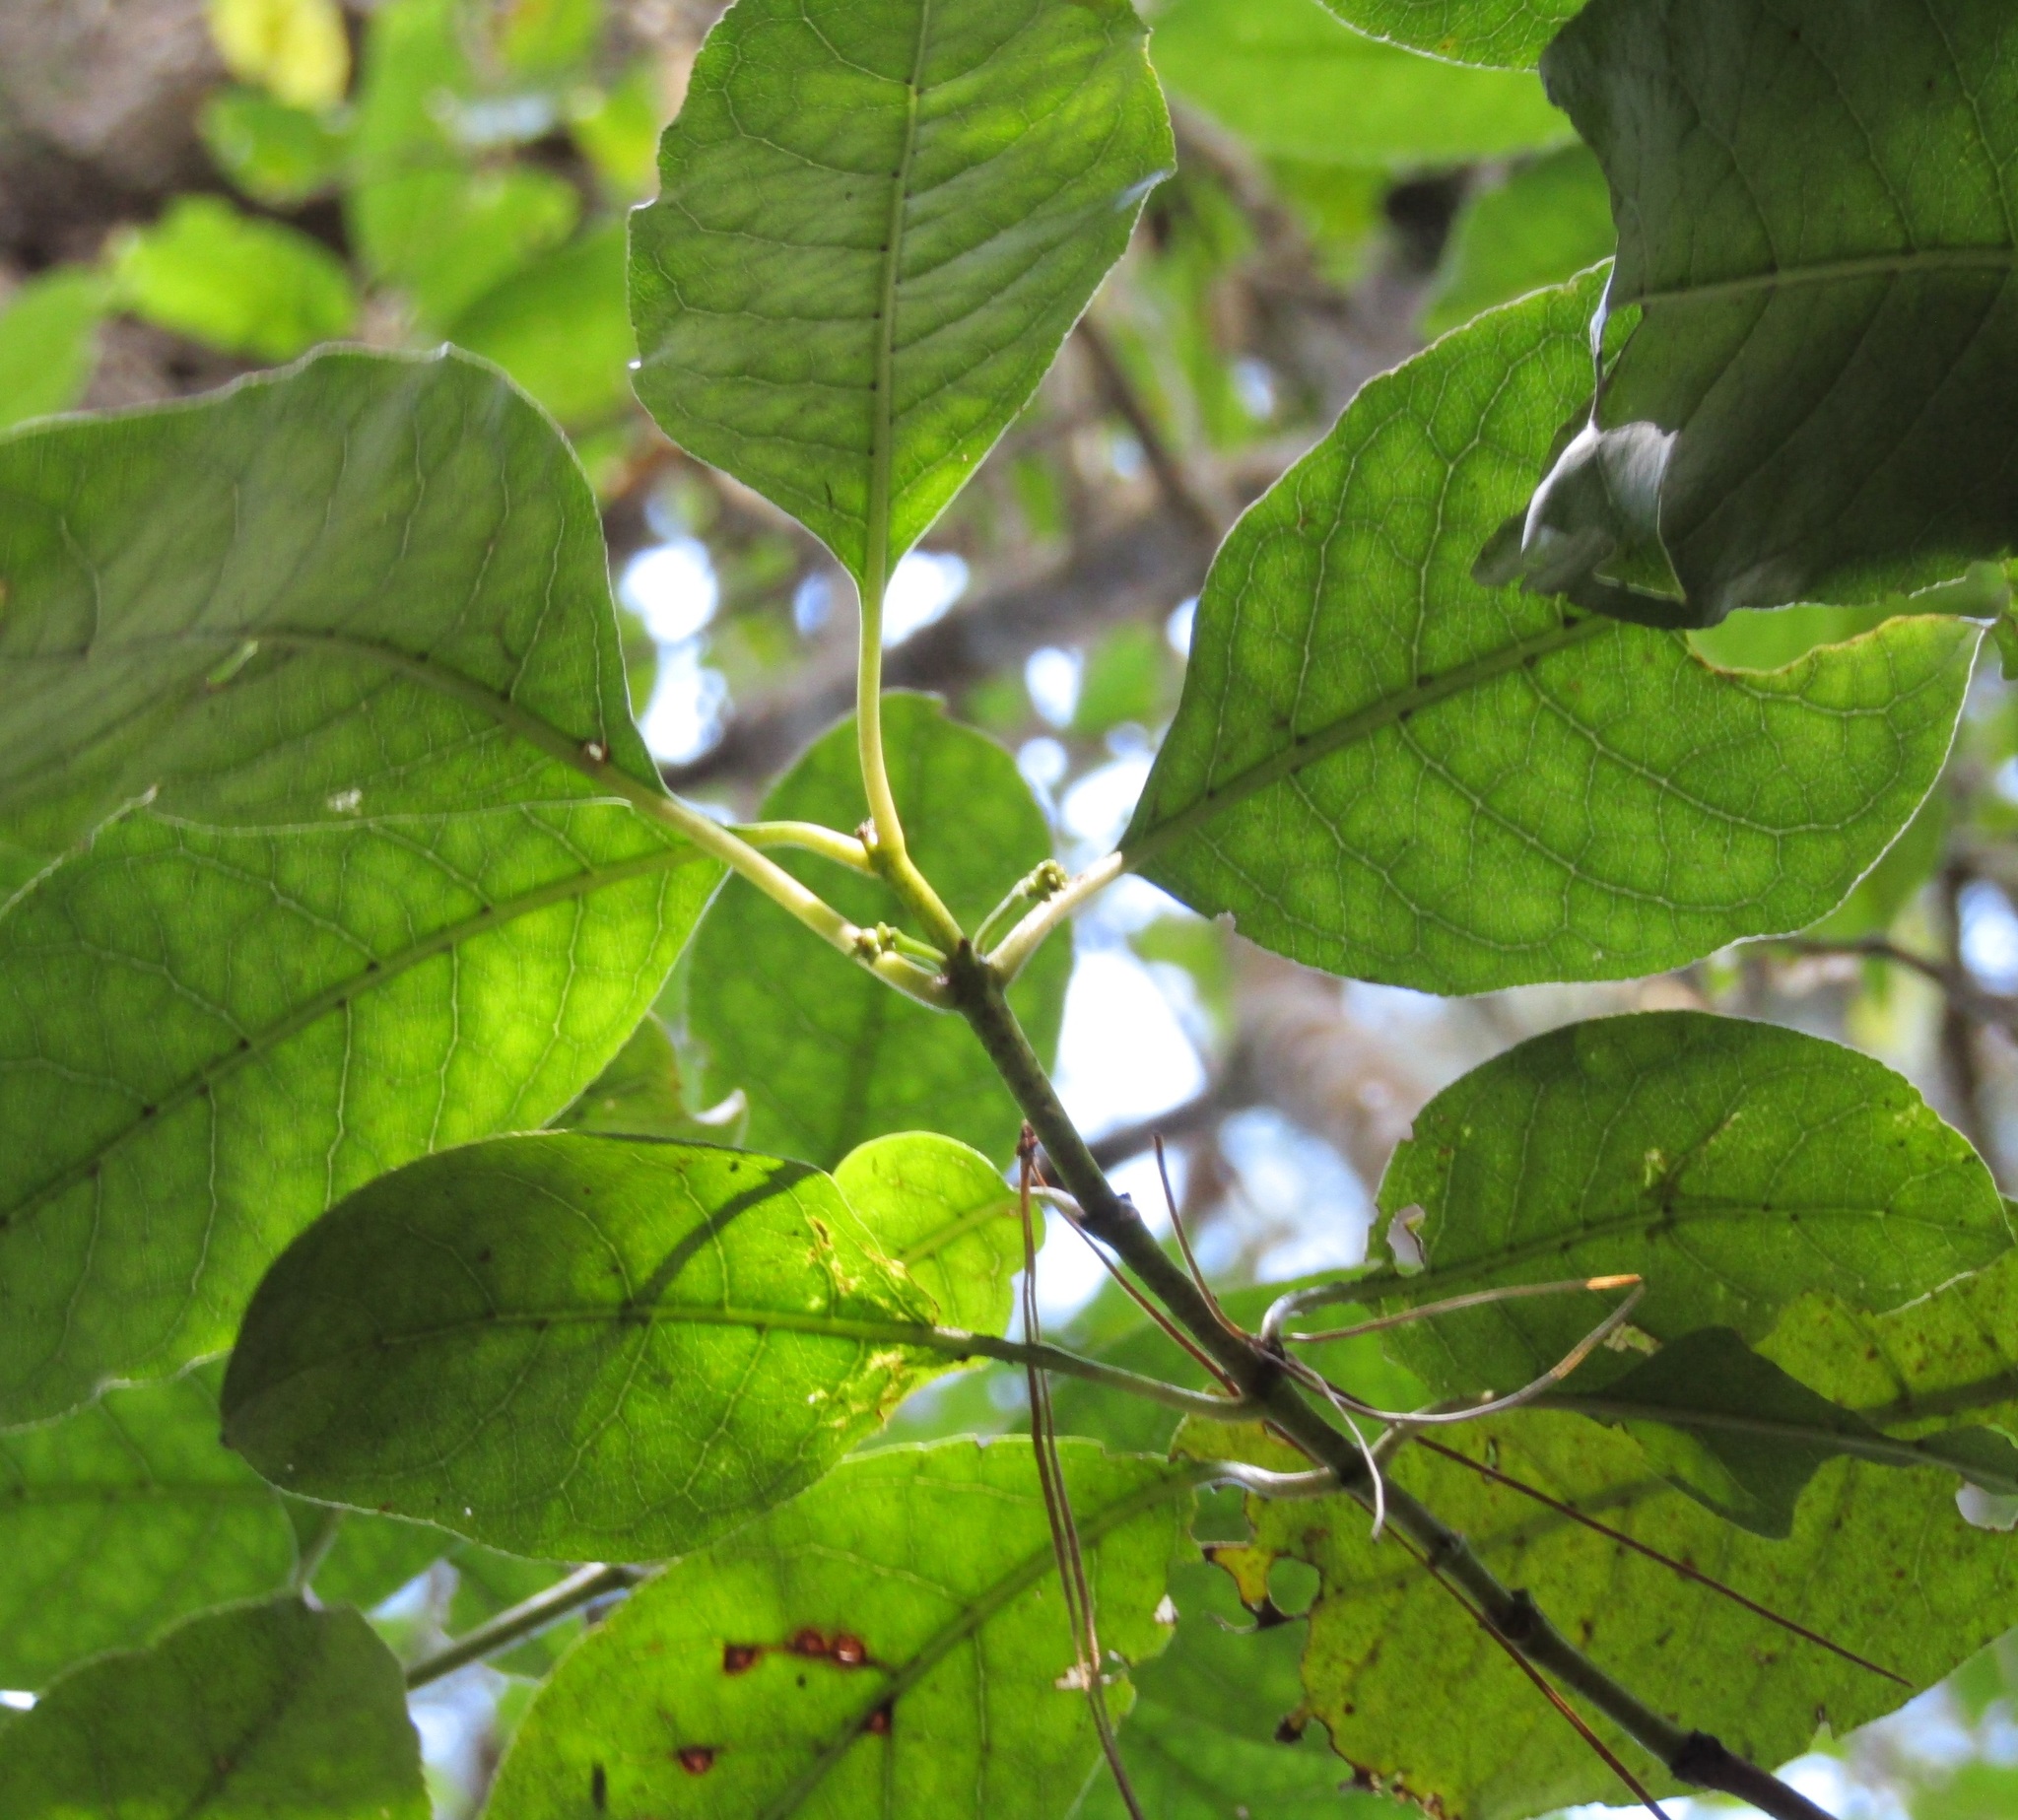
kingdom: Plantae
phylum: Tracheophyta
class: Magnoliopsida
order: Gentianales
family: Rubiaceae
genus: Coprosma
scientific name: Coprosma autumnalis
